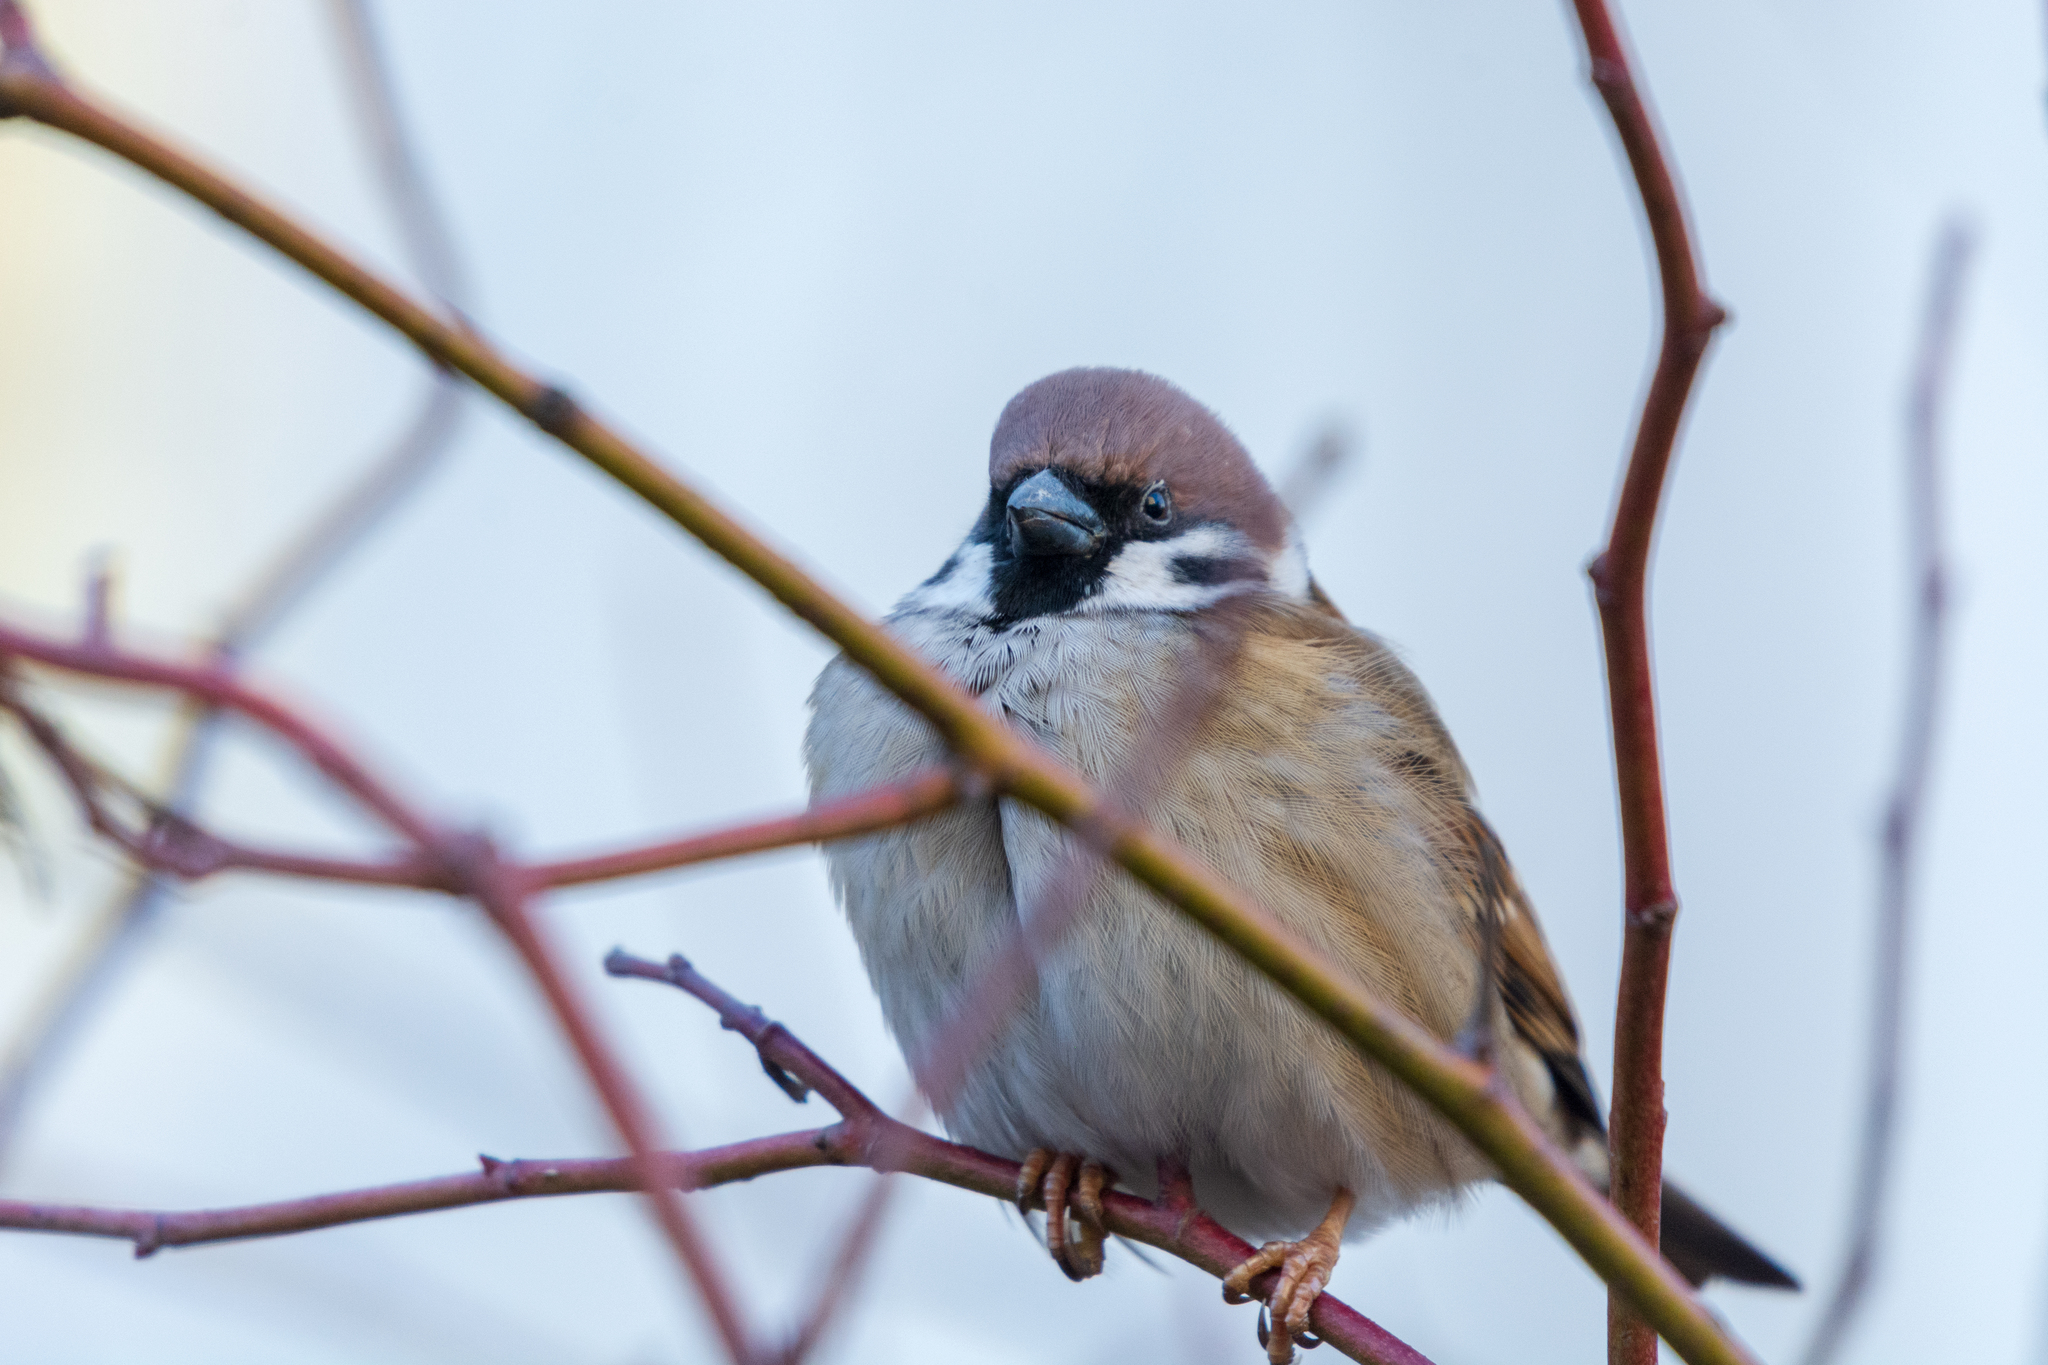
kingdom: Animalia
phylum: Chordata
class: Aves
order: Passeriformes
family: Passeridae
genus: Passer
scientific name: Passer montanus
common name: Eurasian tree sparrow
